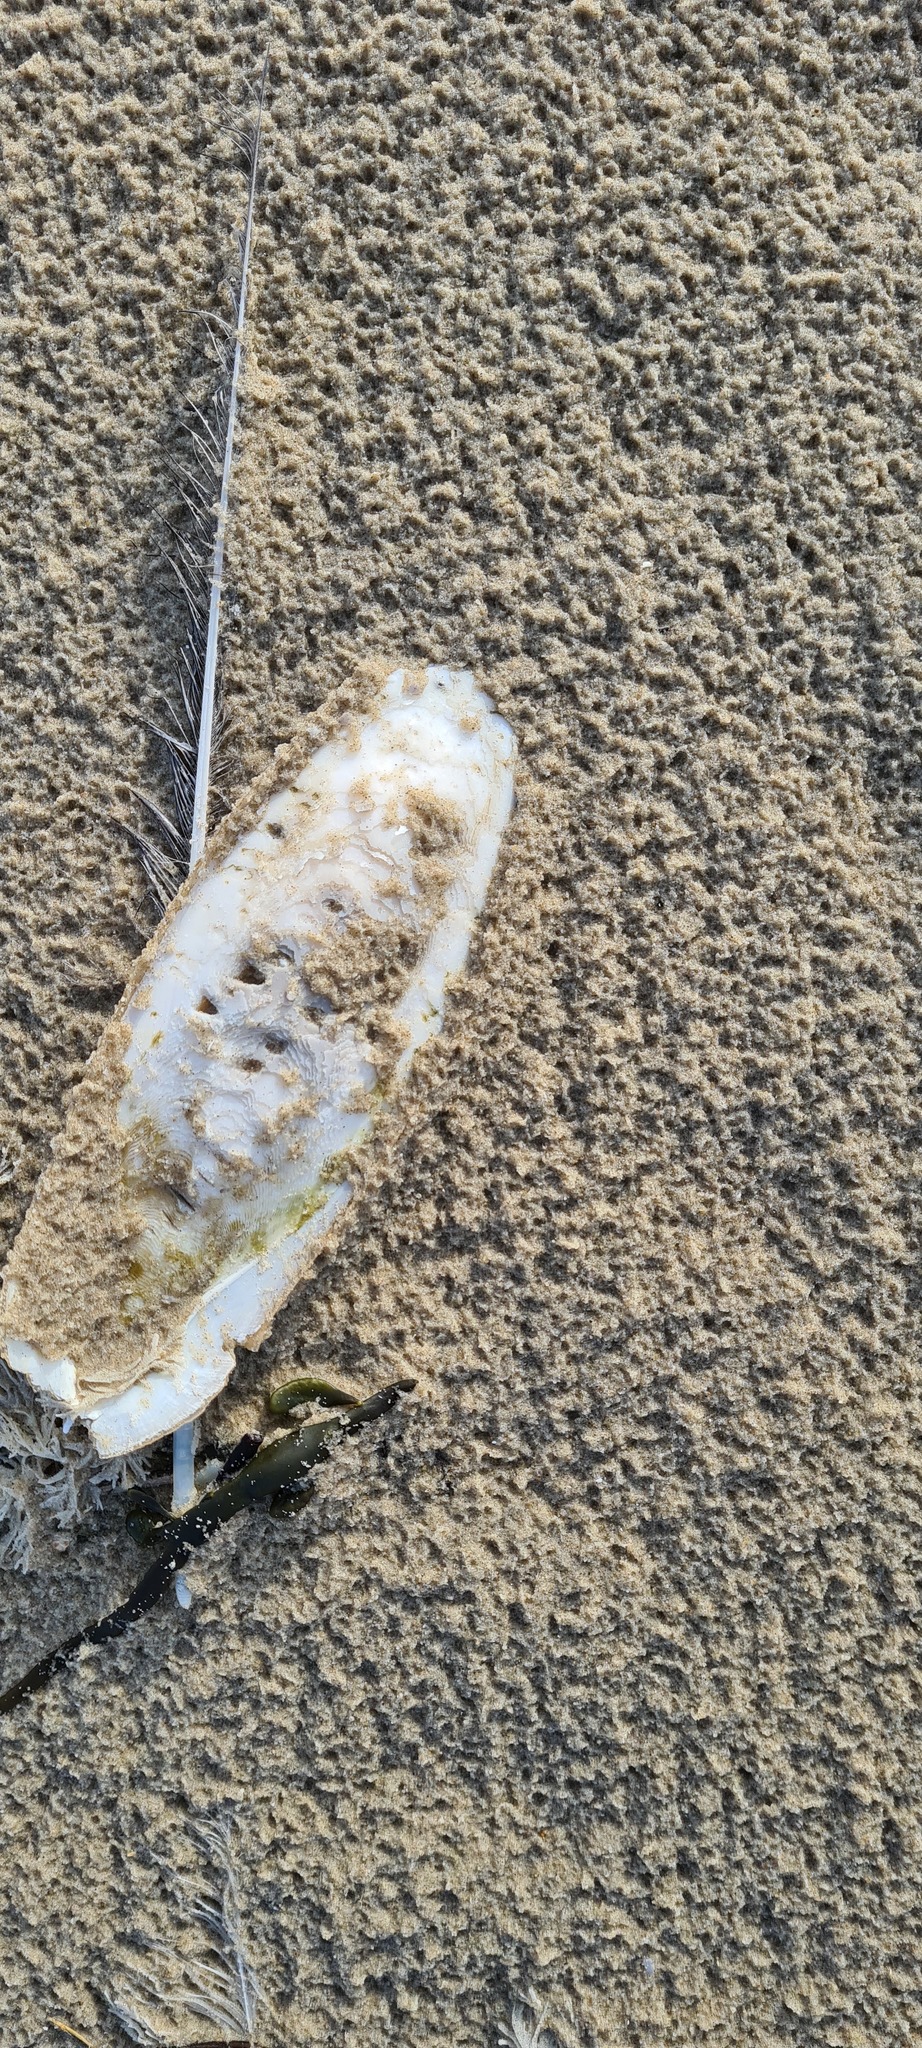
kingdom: Animalia
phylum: Mollusca
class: Cephalopoda
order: Sepiida
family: Sepiidae
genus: Sepia
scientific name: Sepia officinalis
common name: Common cuttlefish
